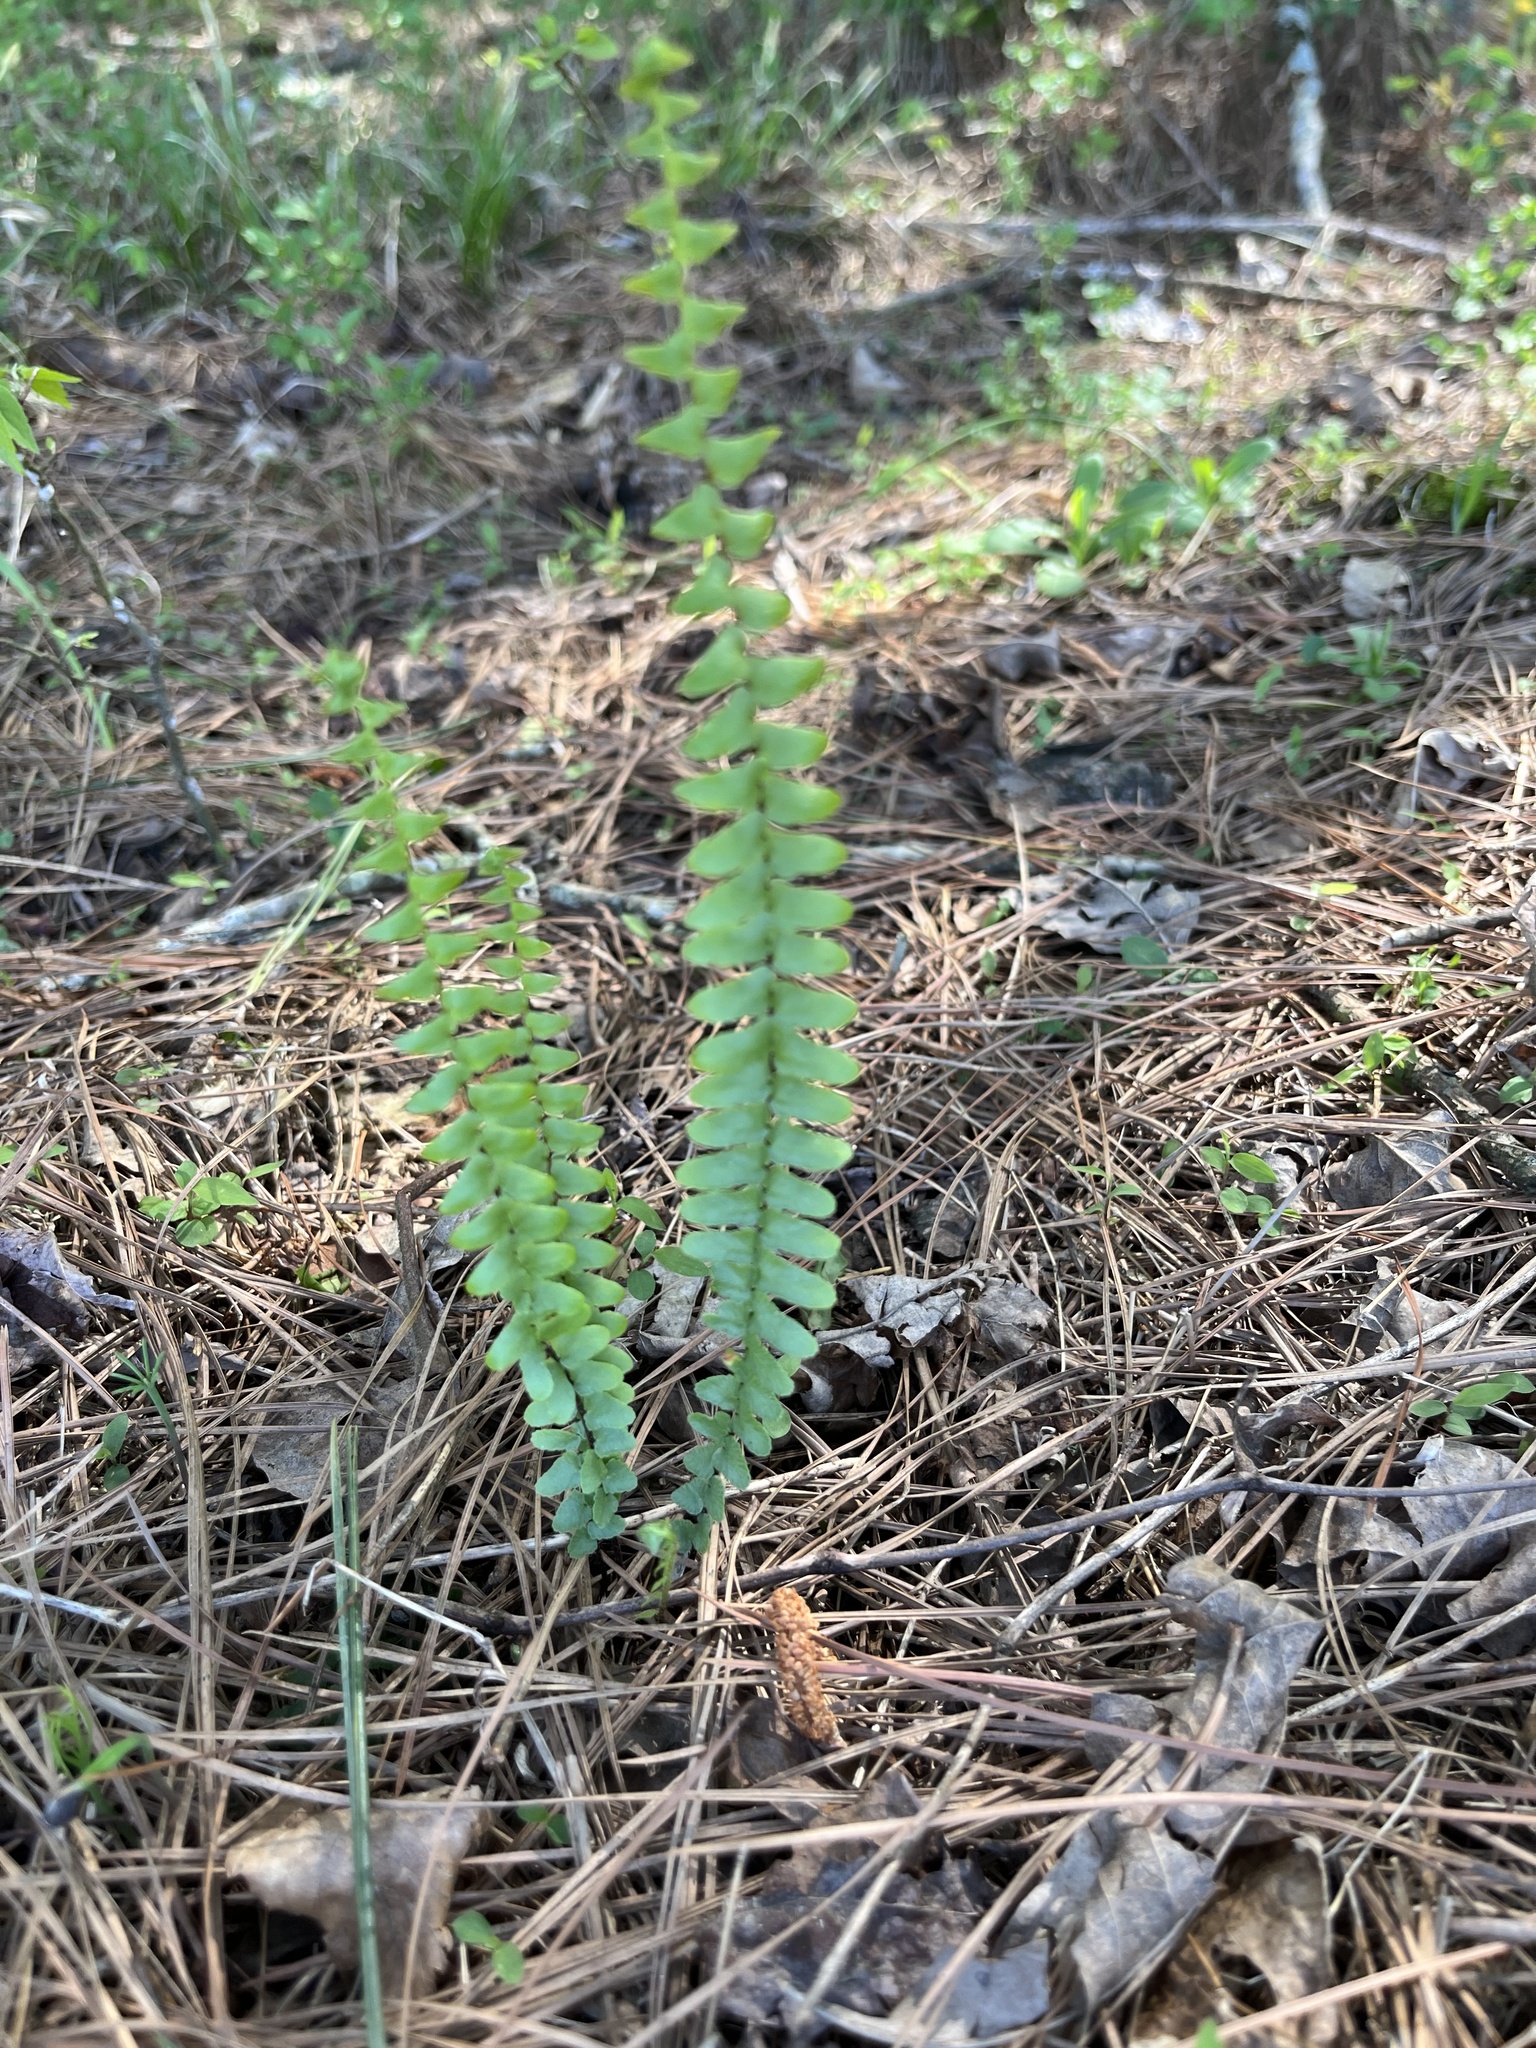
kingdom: Plantae
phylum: Tracheophyta
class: Polypodiopsida
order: Polypodiales
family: Aspleniaceae
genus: Asplenium
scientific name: Asplenium platyneuron
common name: Ebony spleenwort
